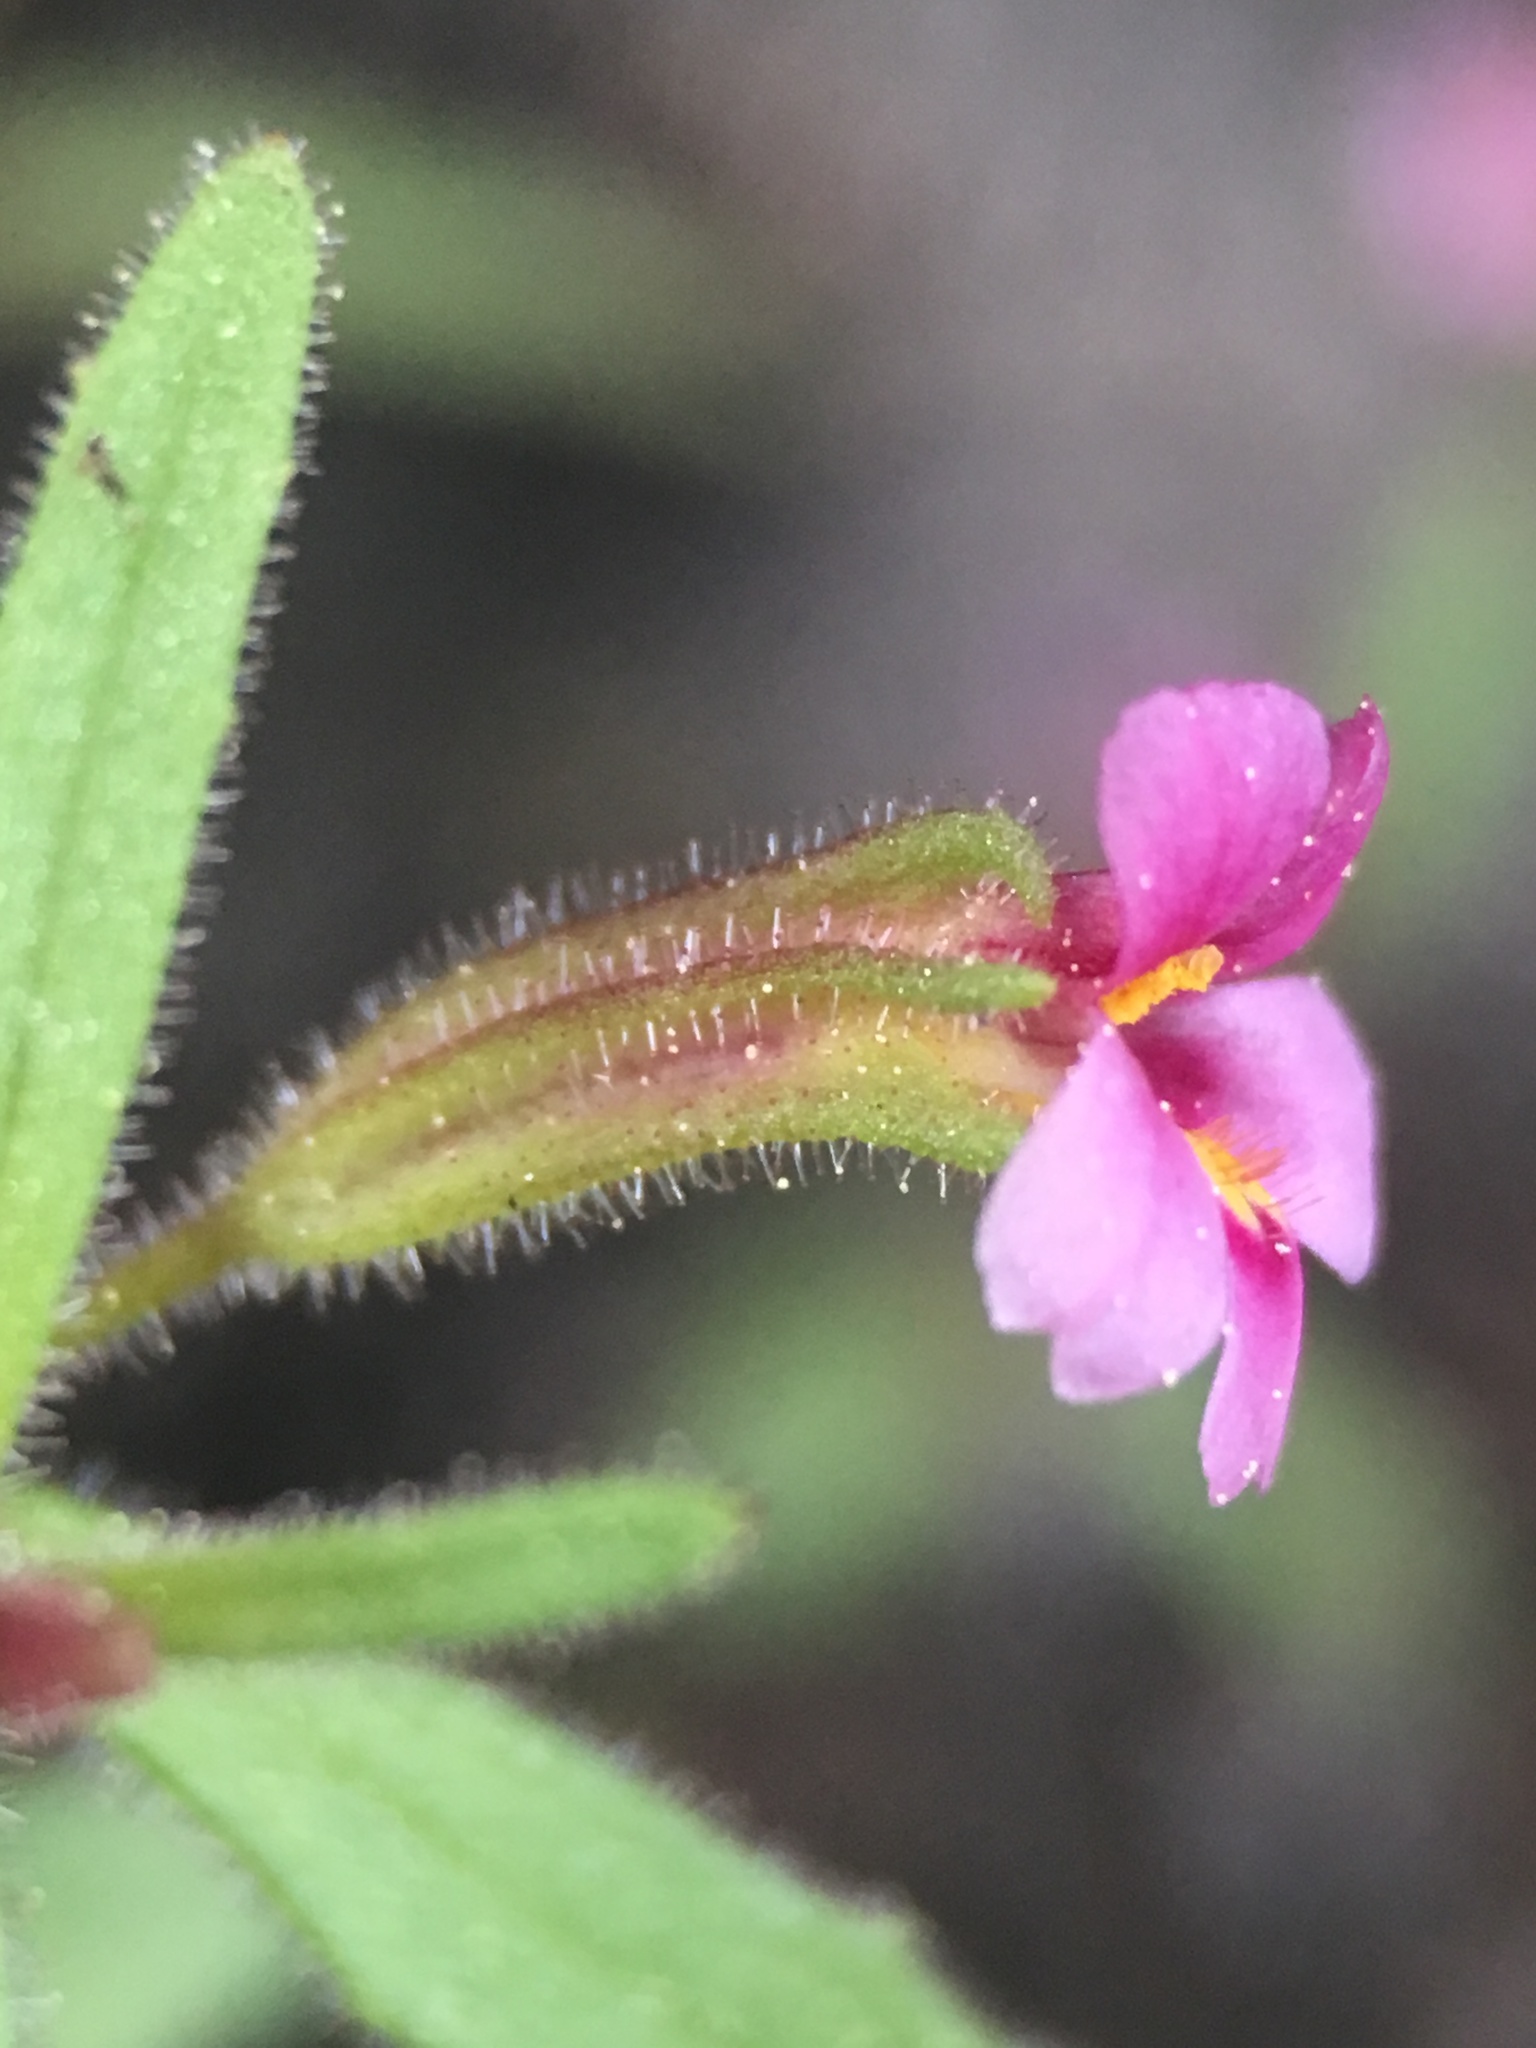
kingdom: Plantae
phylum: Tracheophyta
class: Magnoliopsida
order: Lamiales
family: Phrymaceae
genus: Erythranthe
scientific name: Erythranthe breweri
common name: Brewer's monkeyflower
